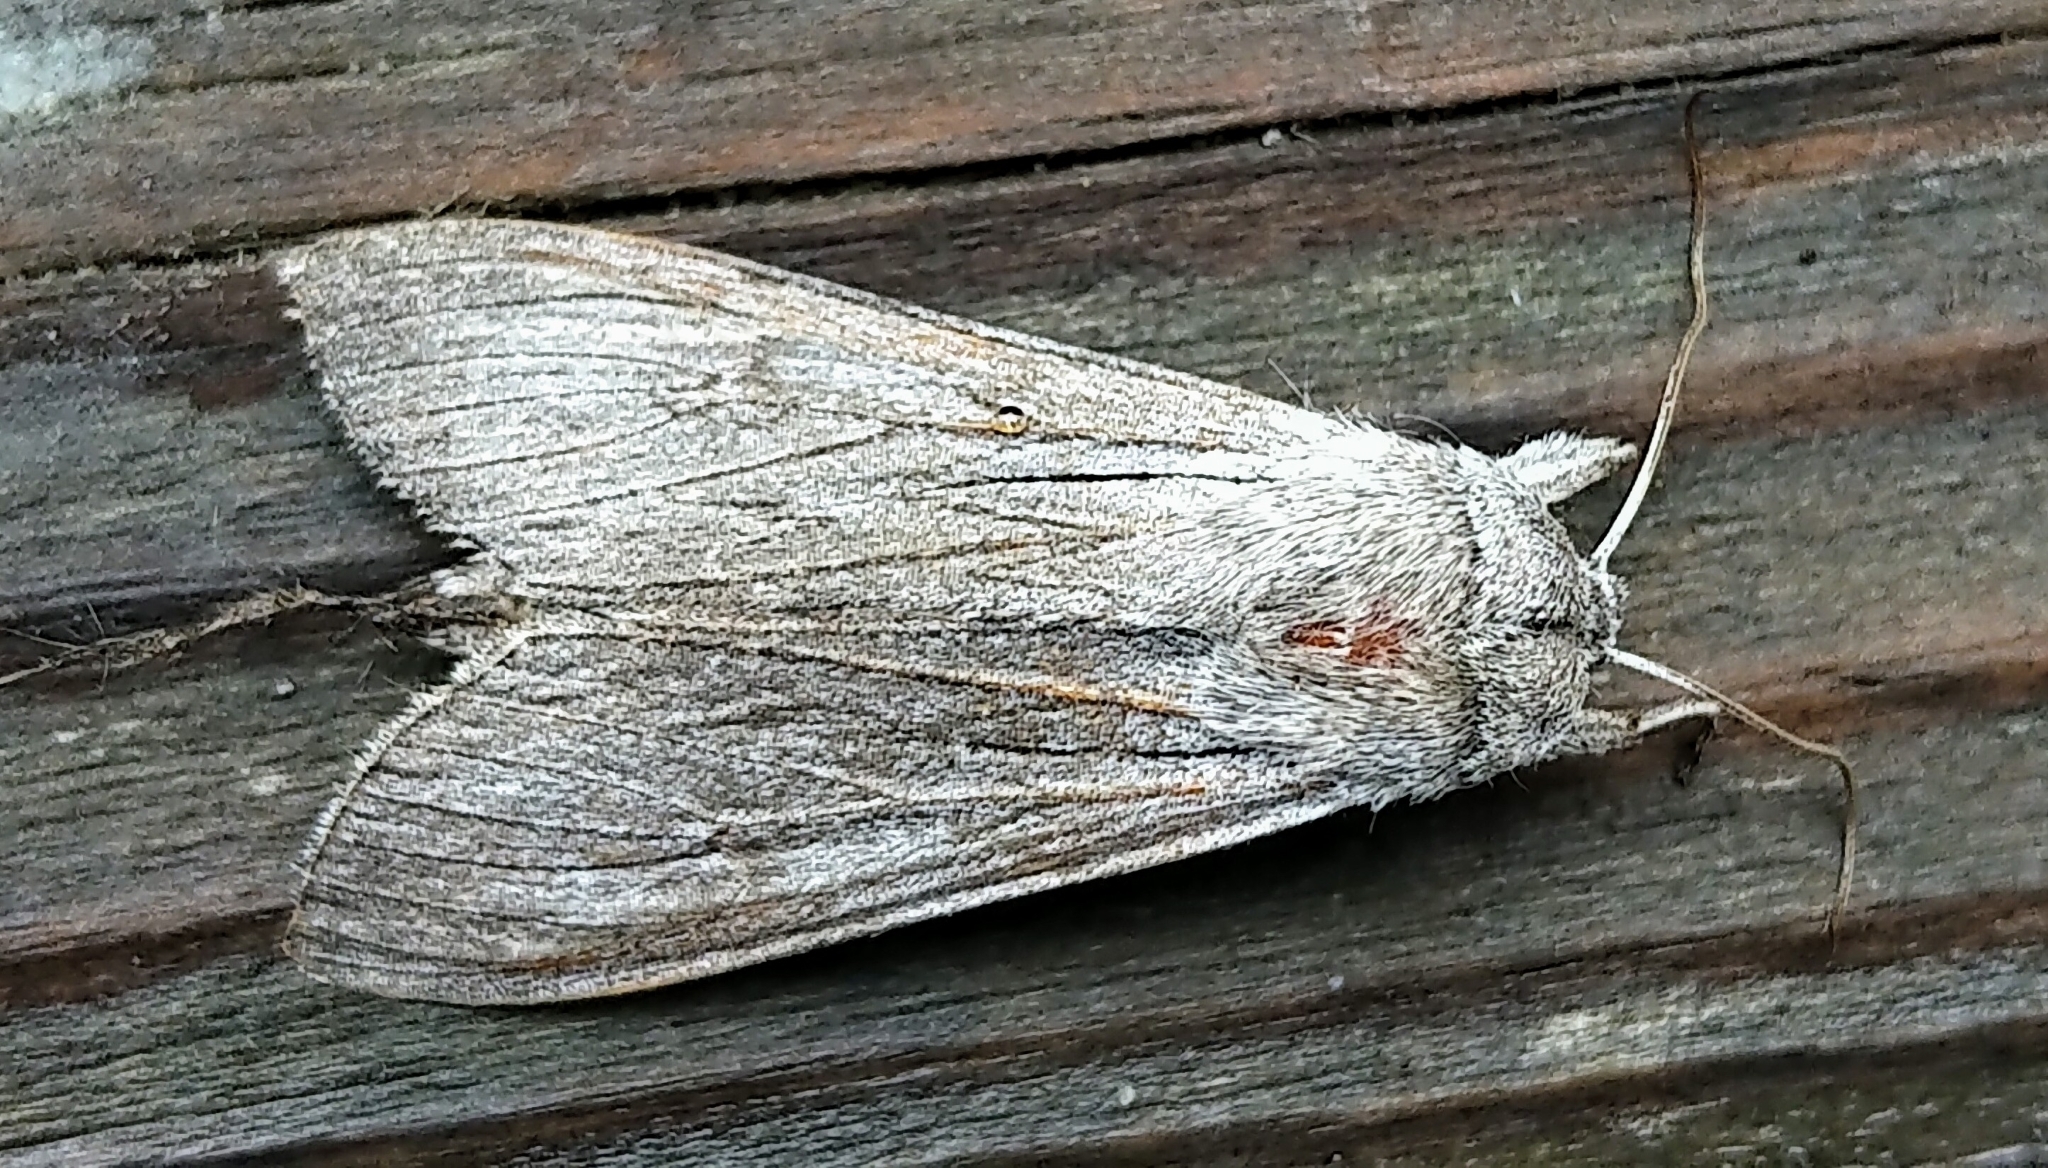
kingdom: Animalia
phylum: Arthropoda
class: Insecta
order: Lepidoptera
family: Noctuidae
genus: Cucullia
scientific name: Cucullia speyeri
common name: Speyer's cucullia moth
